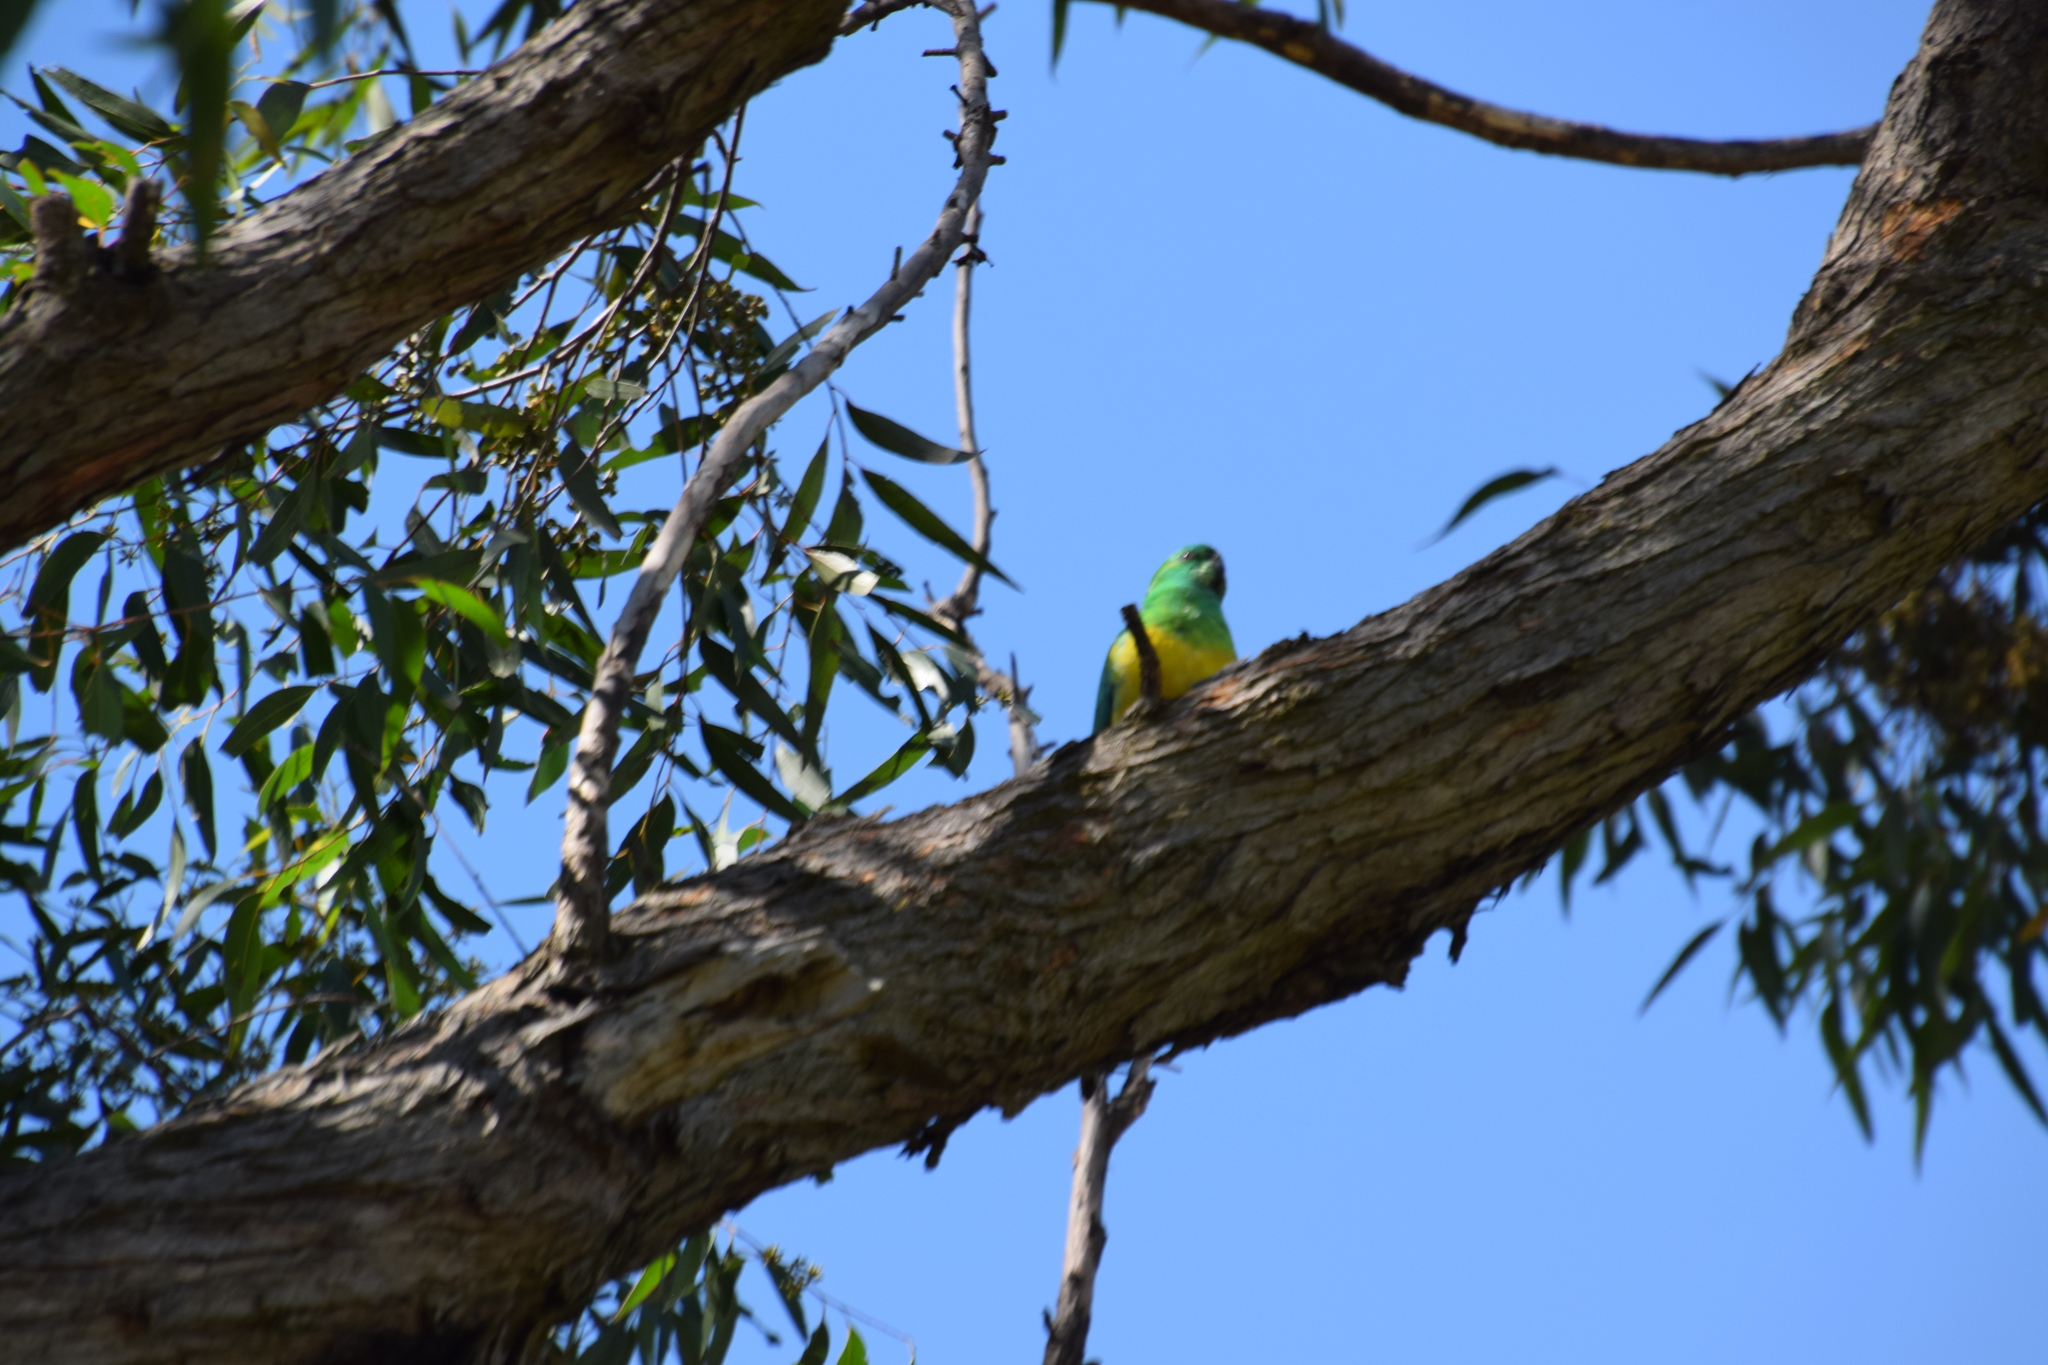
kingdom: Animalia
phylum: Chordata
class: Aves
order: Psittaciformes
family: Psittacidae
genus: Psephotus
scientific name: Psephotus haematonotus
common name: Red-rumped parrot
